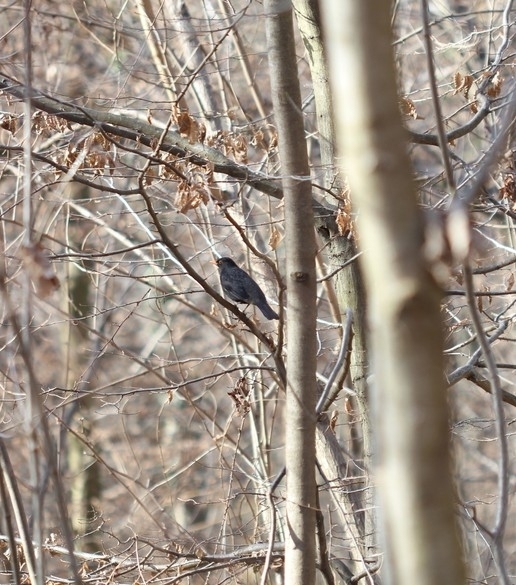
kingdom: Animalia
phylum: Chordata
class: Aves
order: Passeriformes
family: Turdidae
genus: Turdus
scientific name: Turdus merula
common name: Common blackbird
